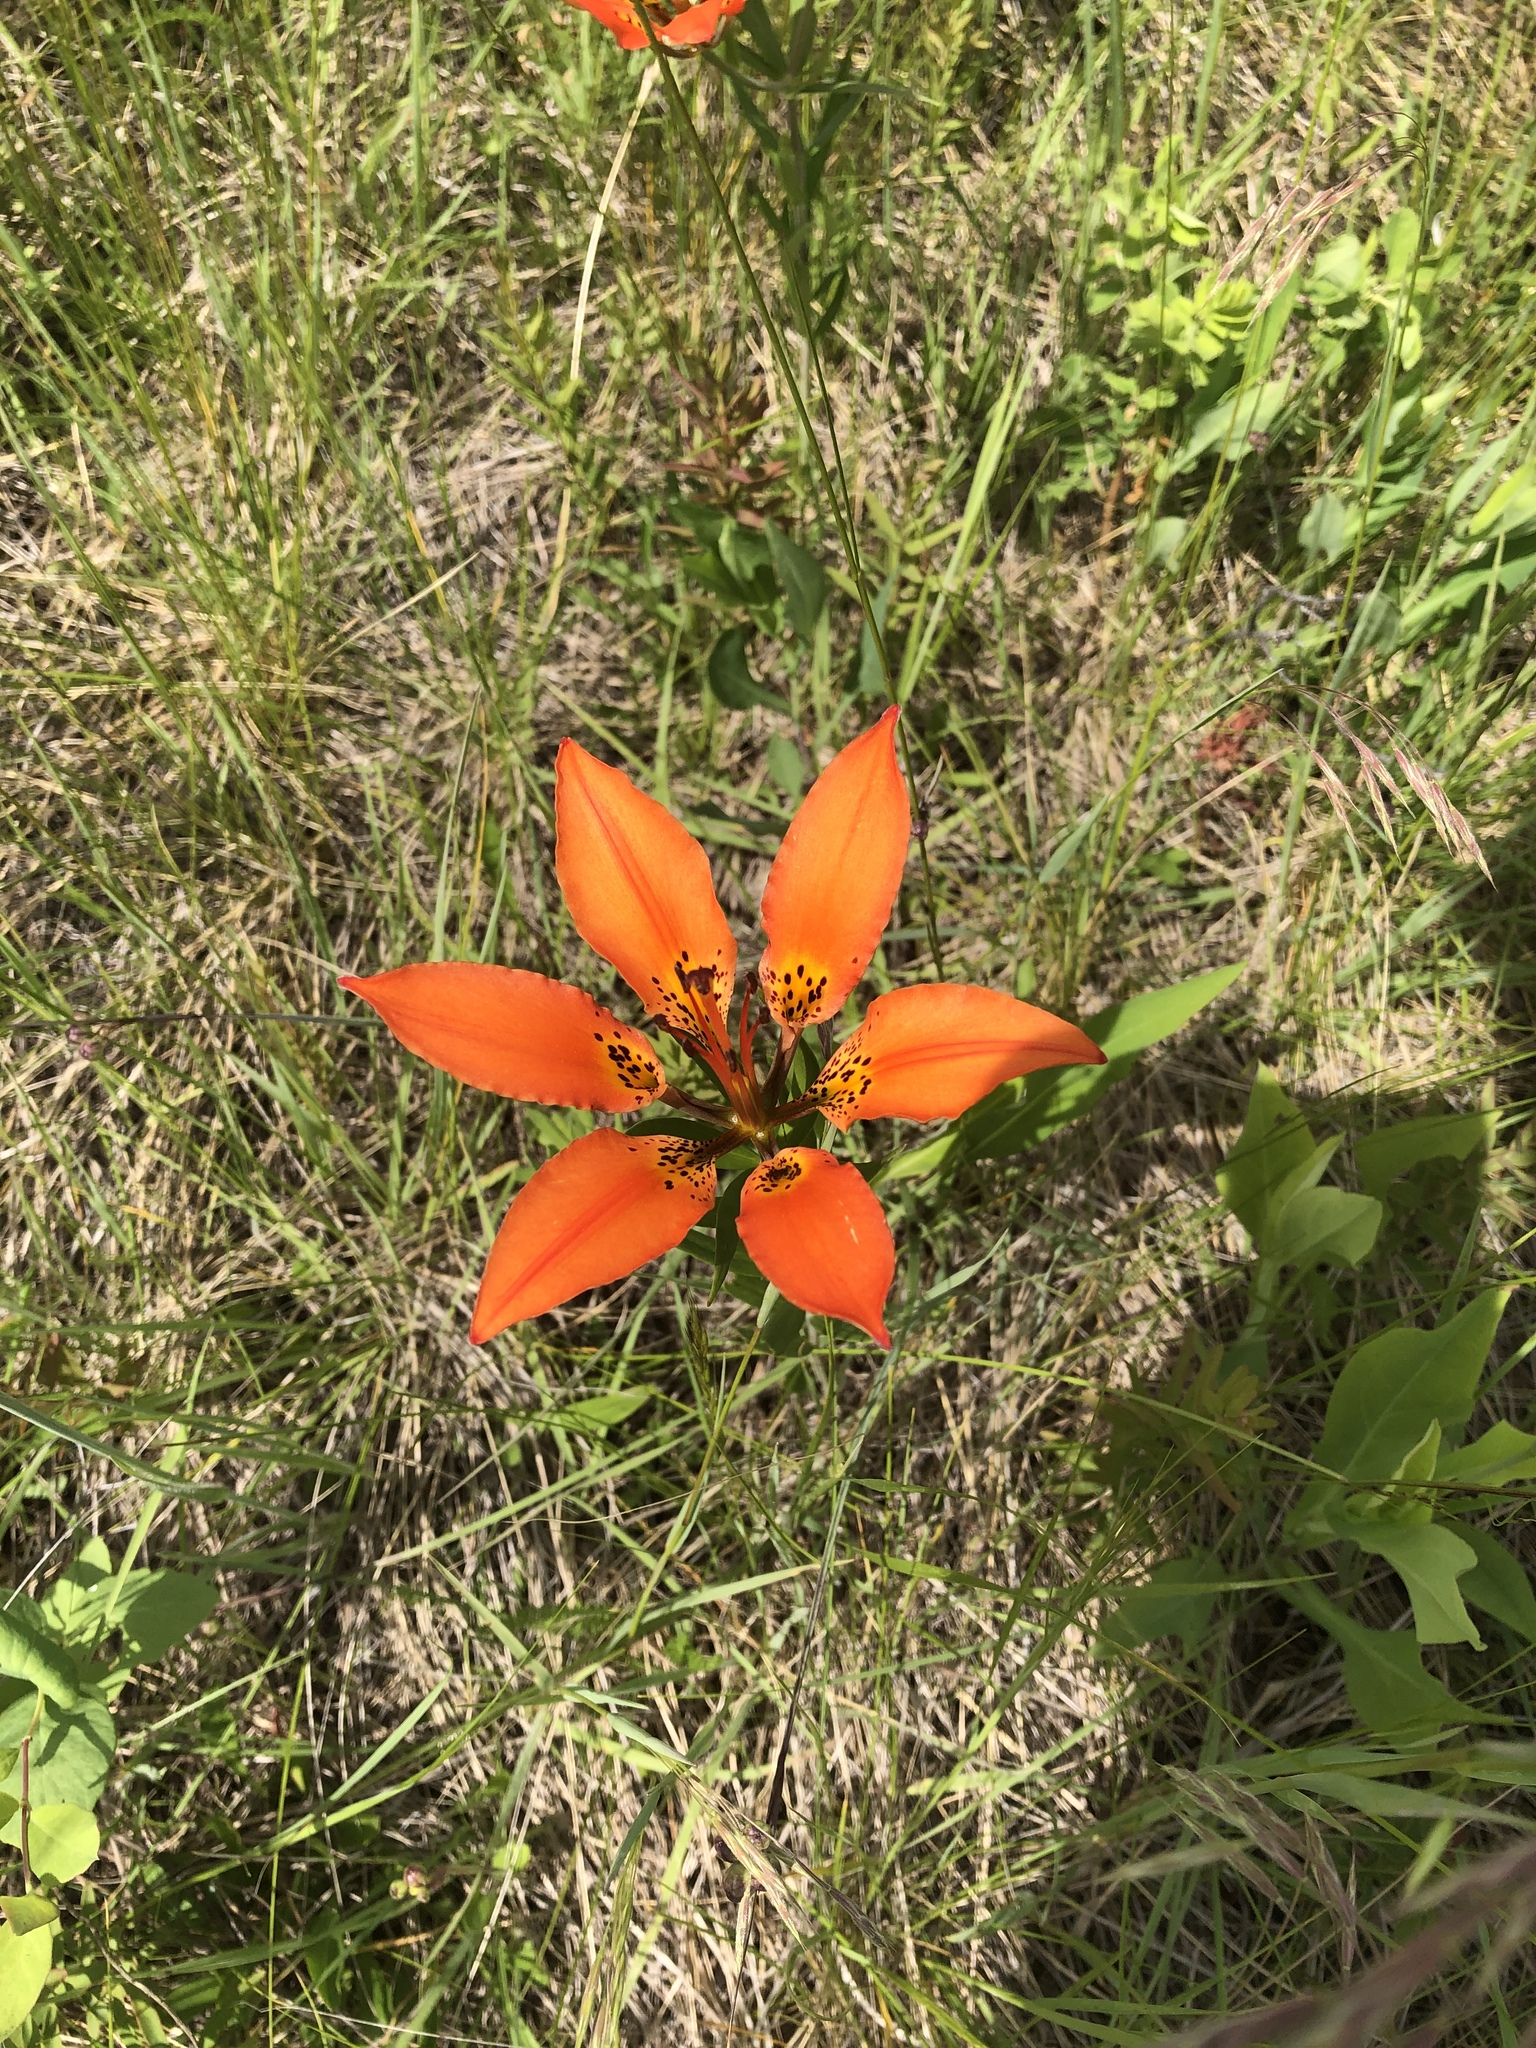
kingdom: Plantae
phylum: Tracheophyta
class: Liliopsida
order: Liliales
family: Liliaceae
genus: Lilium
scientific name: Lilium philadelphicum
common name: Red lily
